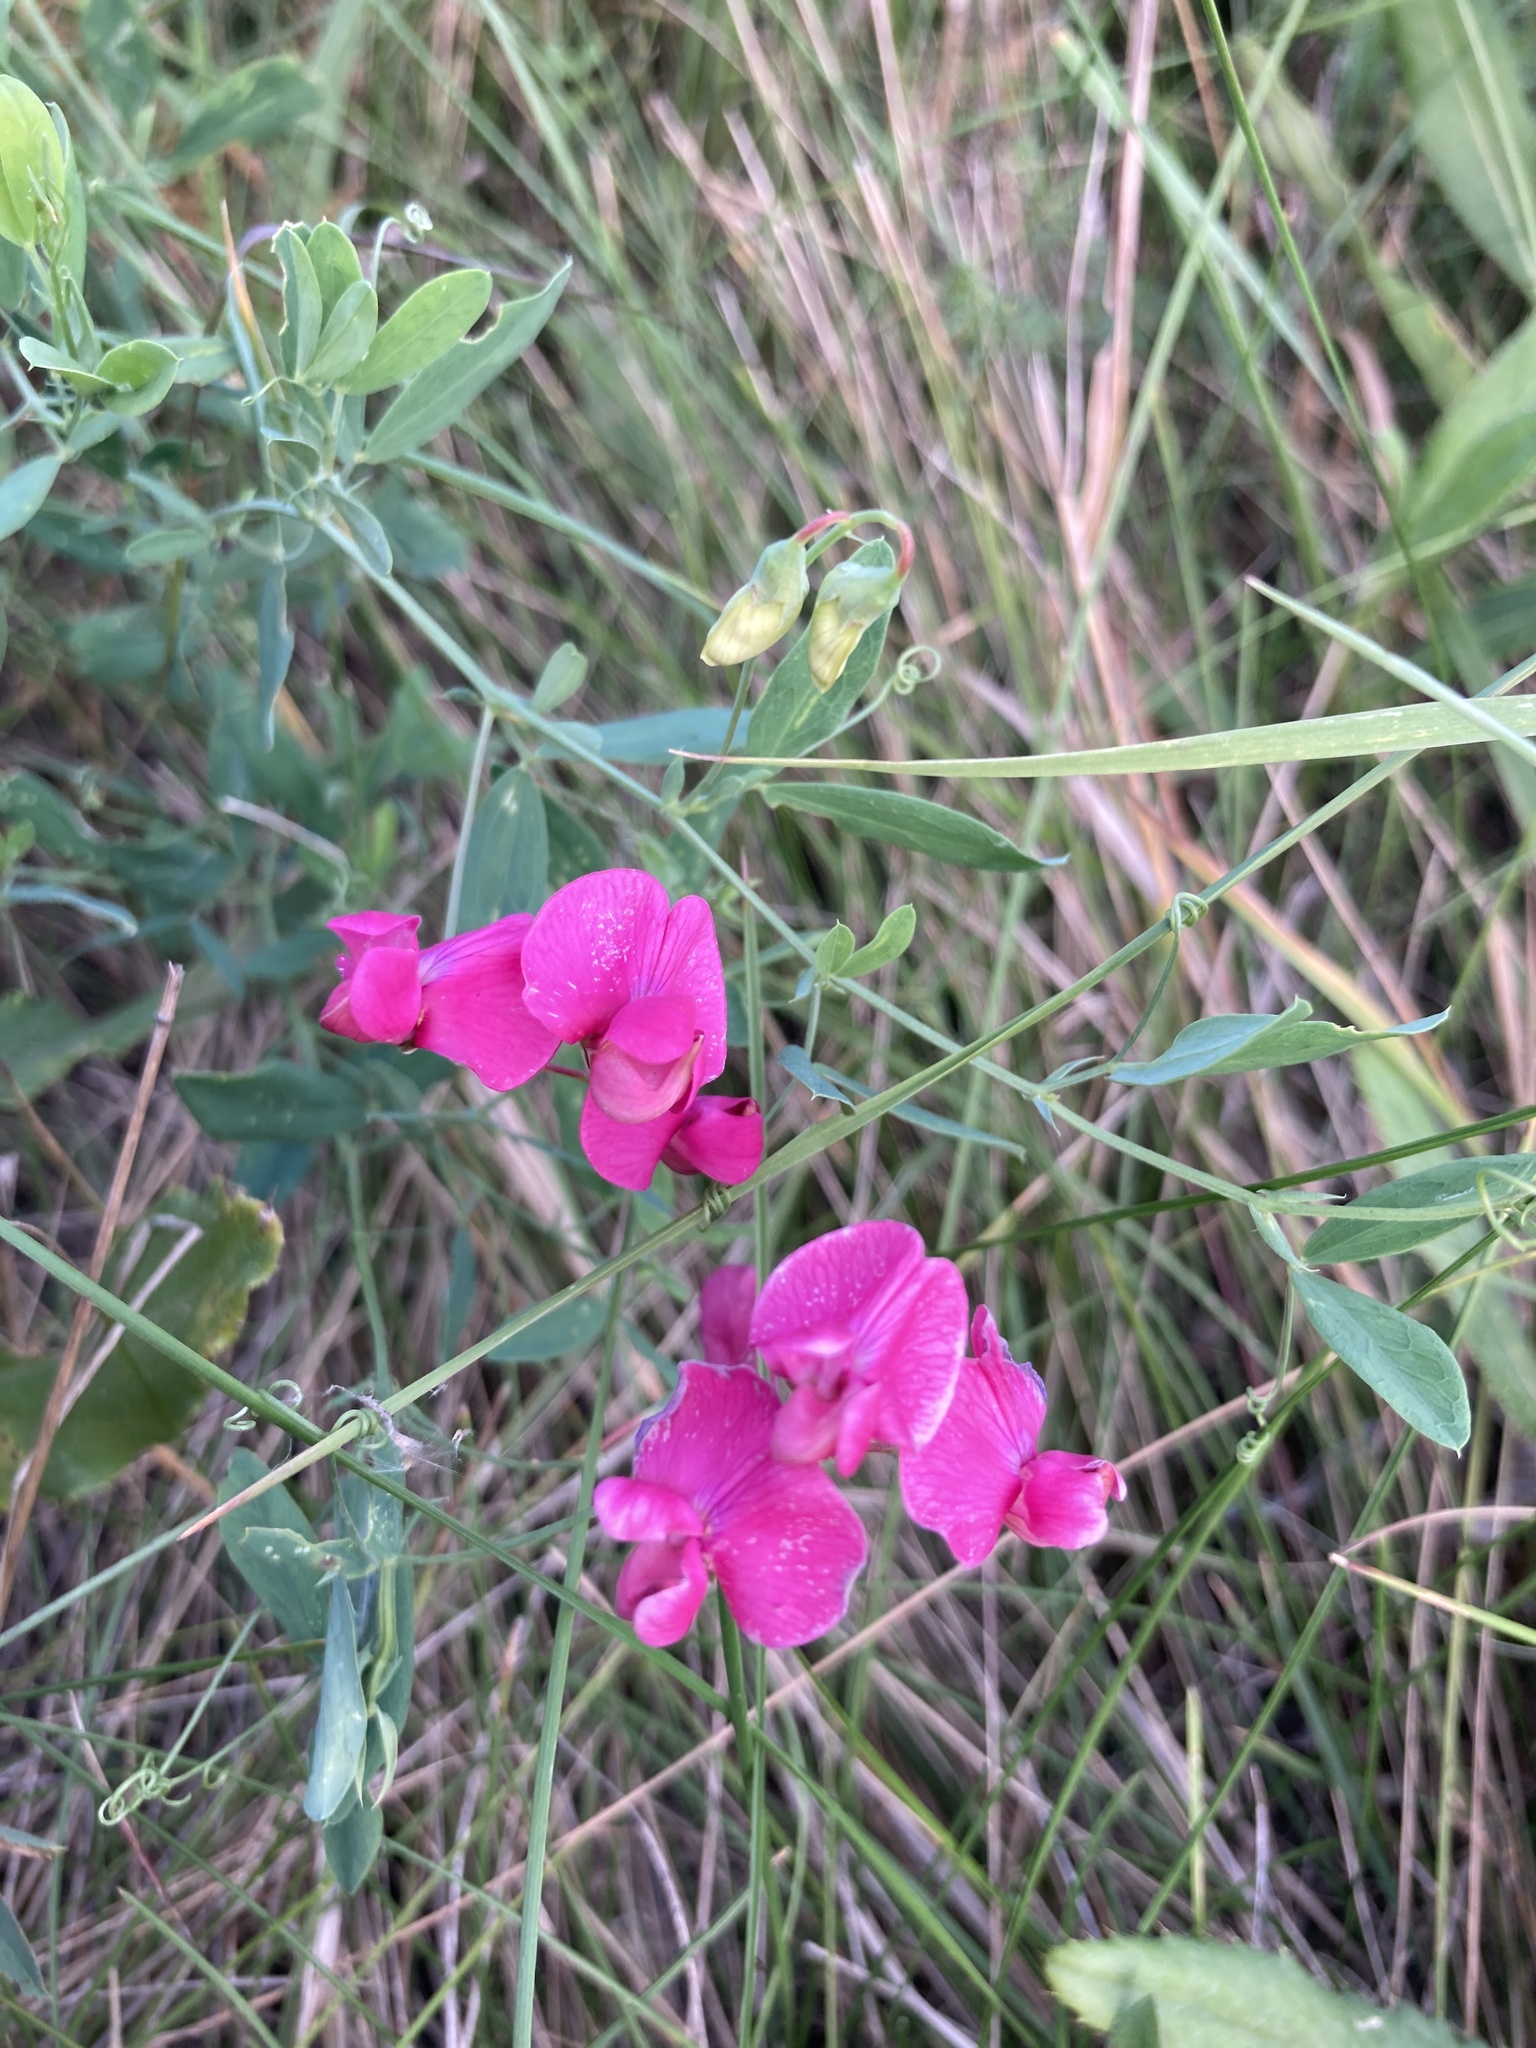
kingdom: Plantae
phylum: Tracheophyta
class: Magnoliopsida
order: Fabales
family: Fabaceae
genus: Lathyrus
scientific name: Lathyrus tuberosus
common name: Tuberous pea
